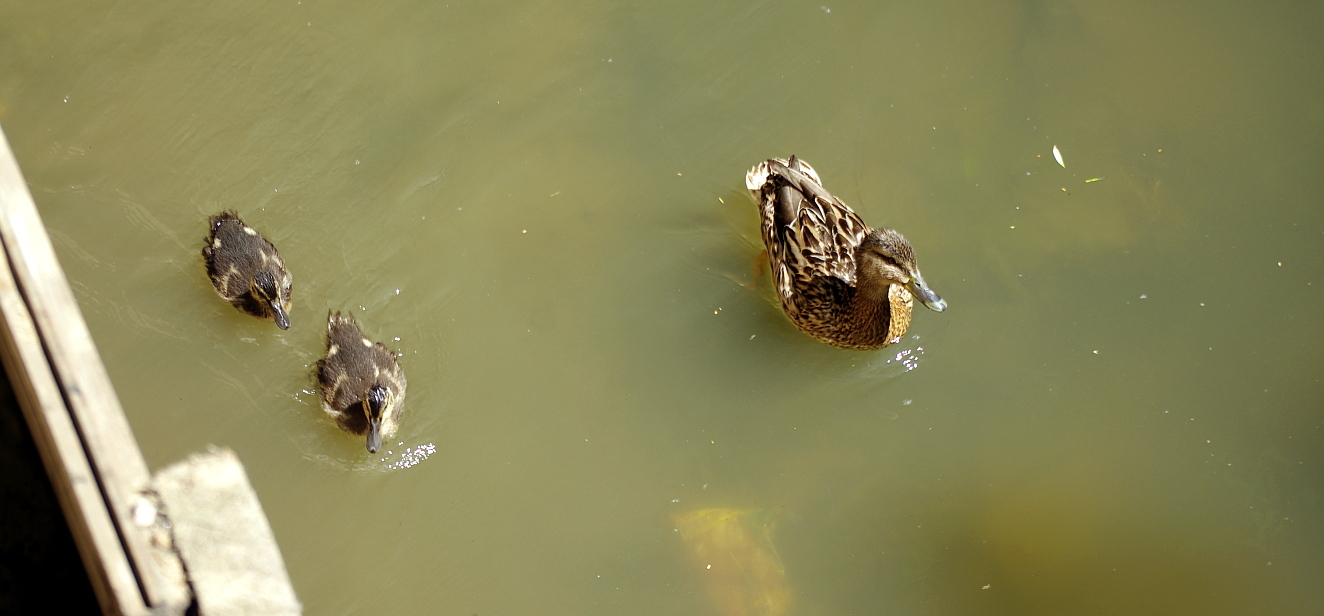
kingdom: Animalia
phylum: Chordata
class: Aves
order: Anseriformes
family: Anatidae
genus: Anas
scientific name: Anas platyrhynchos
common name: Mallard
